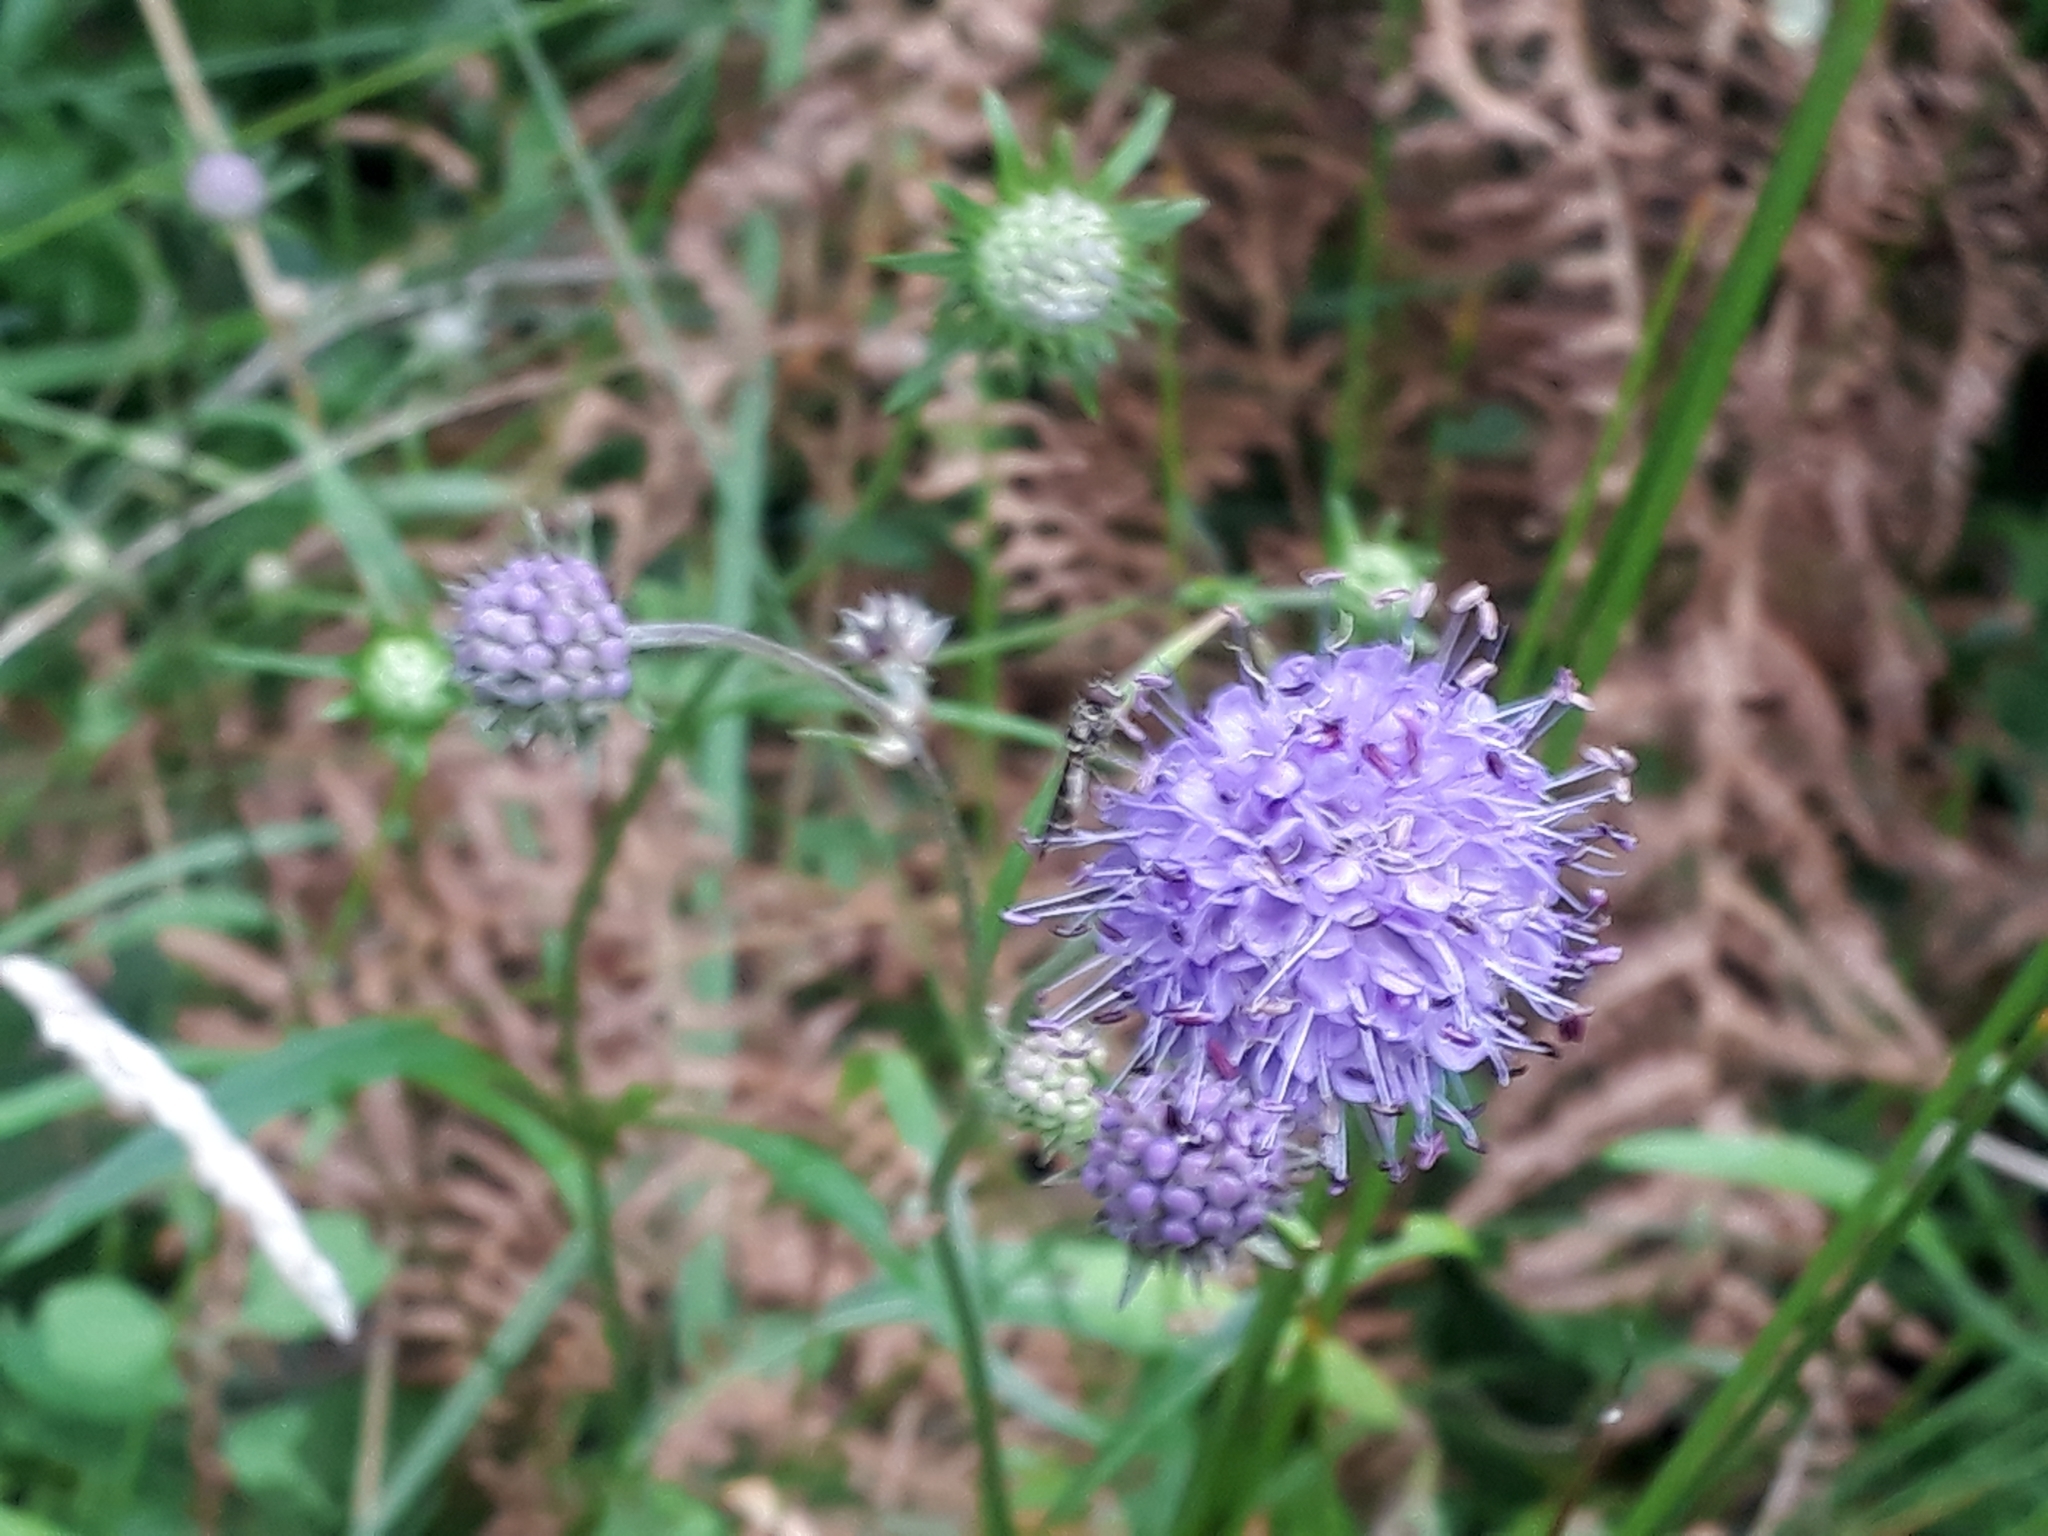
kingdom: Plantae
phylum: Tracheophyta
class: Magnoliopsida
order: Dipsacales
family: Caprifoliaceae
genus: Succisa
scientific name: Succisa pratensis
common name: Devil's-bit
